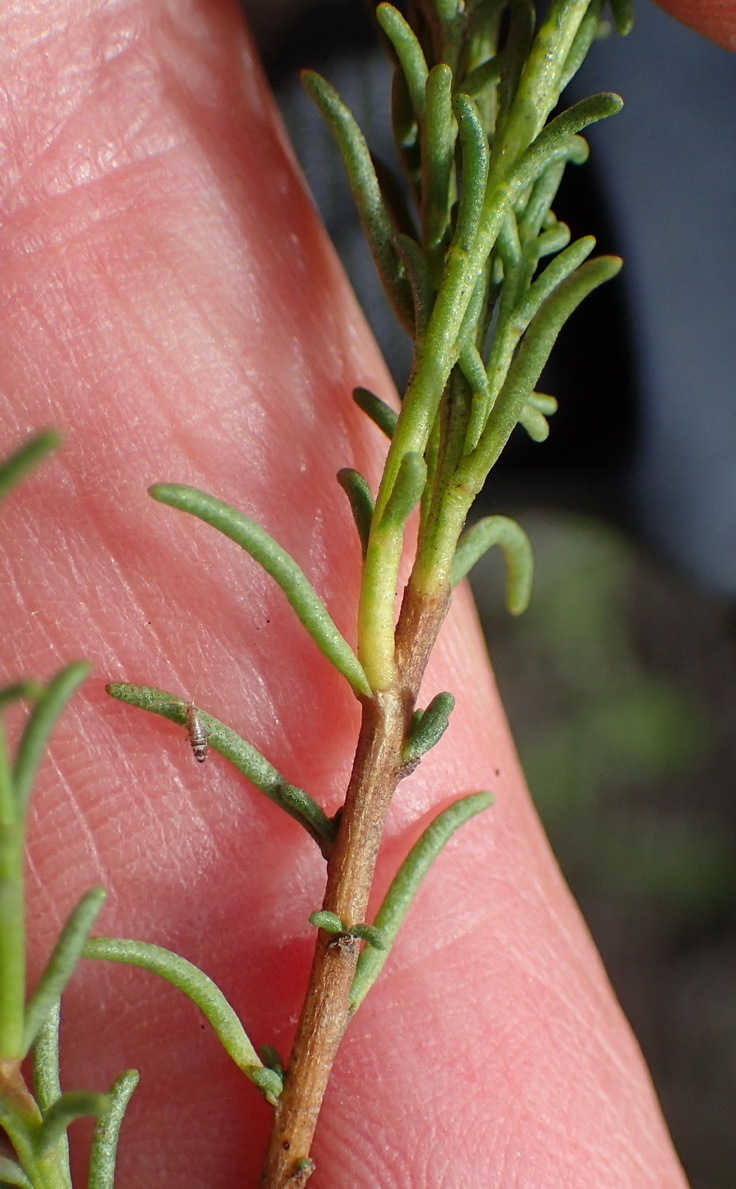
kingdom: Plantae
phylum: Tracheophyta
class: Magnoliopsida
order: Asterales
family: Asteraceae
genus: Chrysocoma
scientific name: Chrysocoma ciliata
